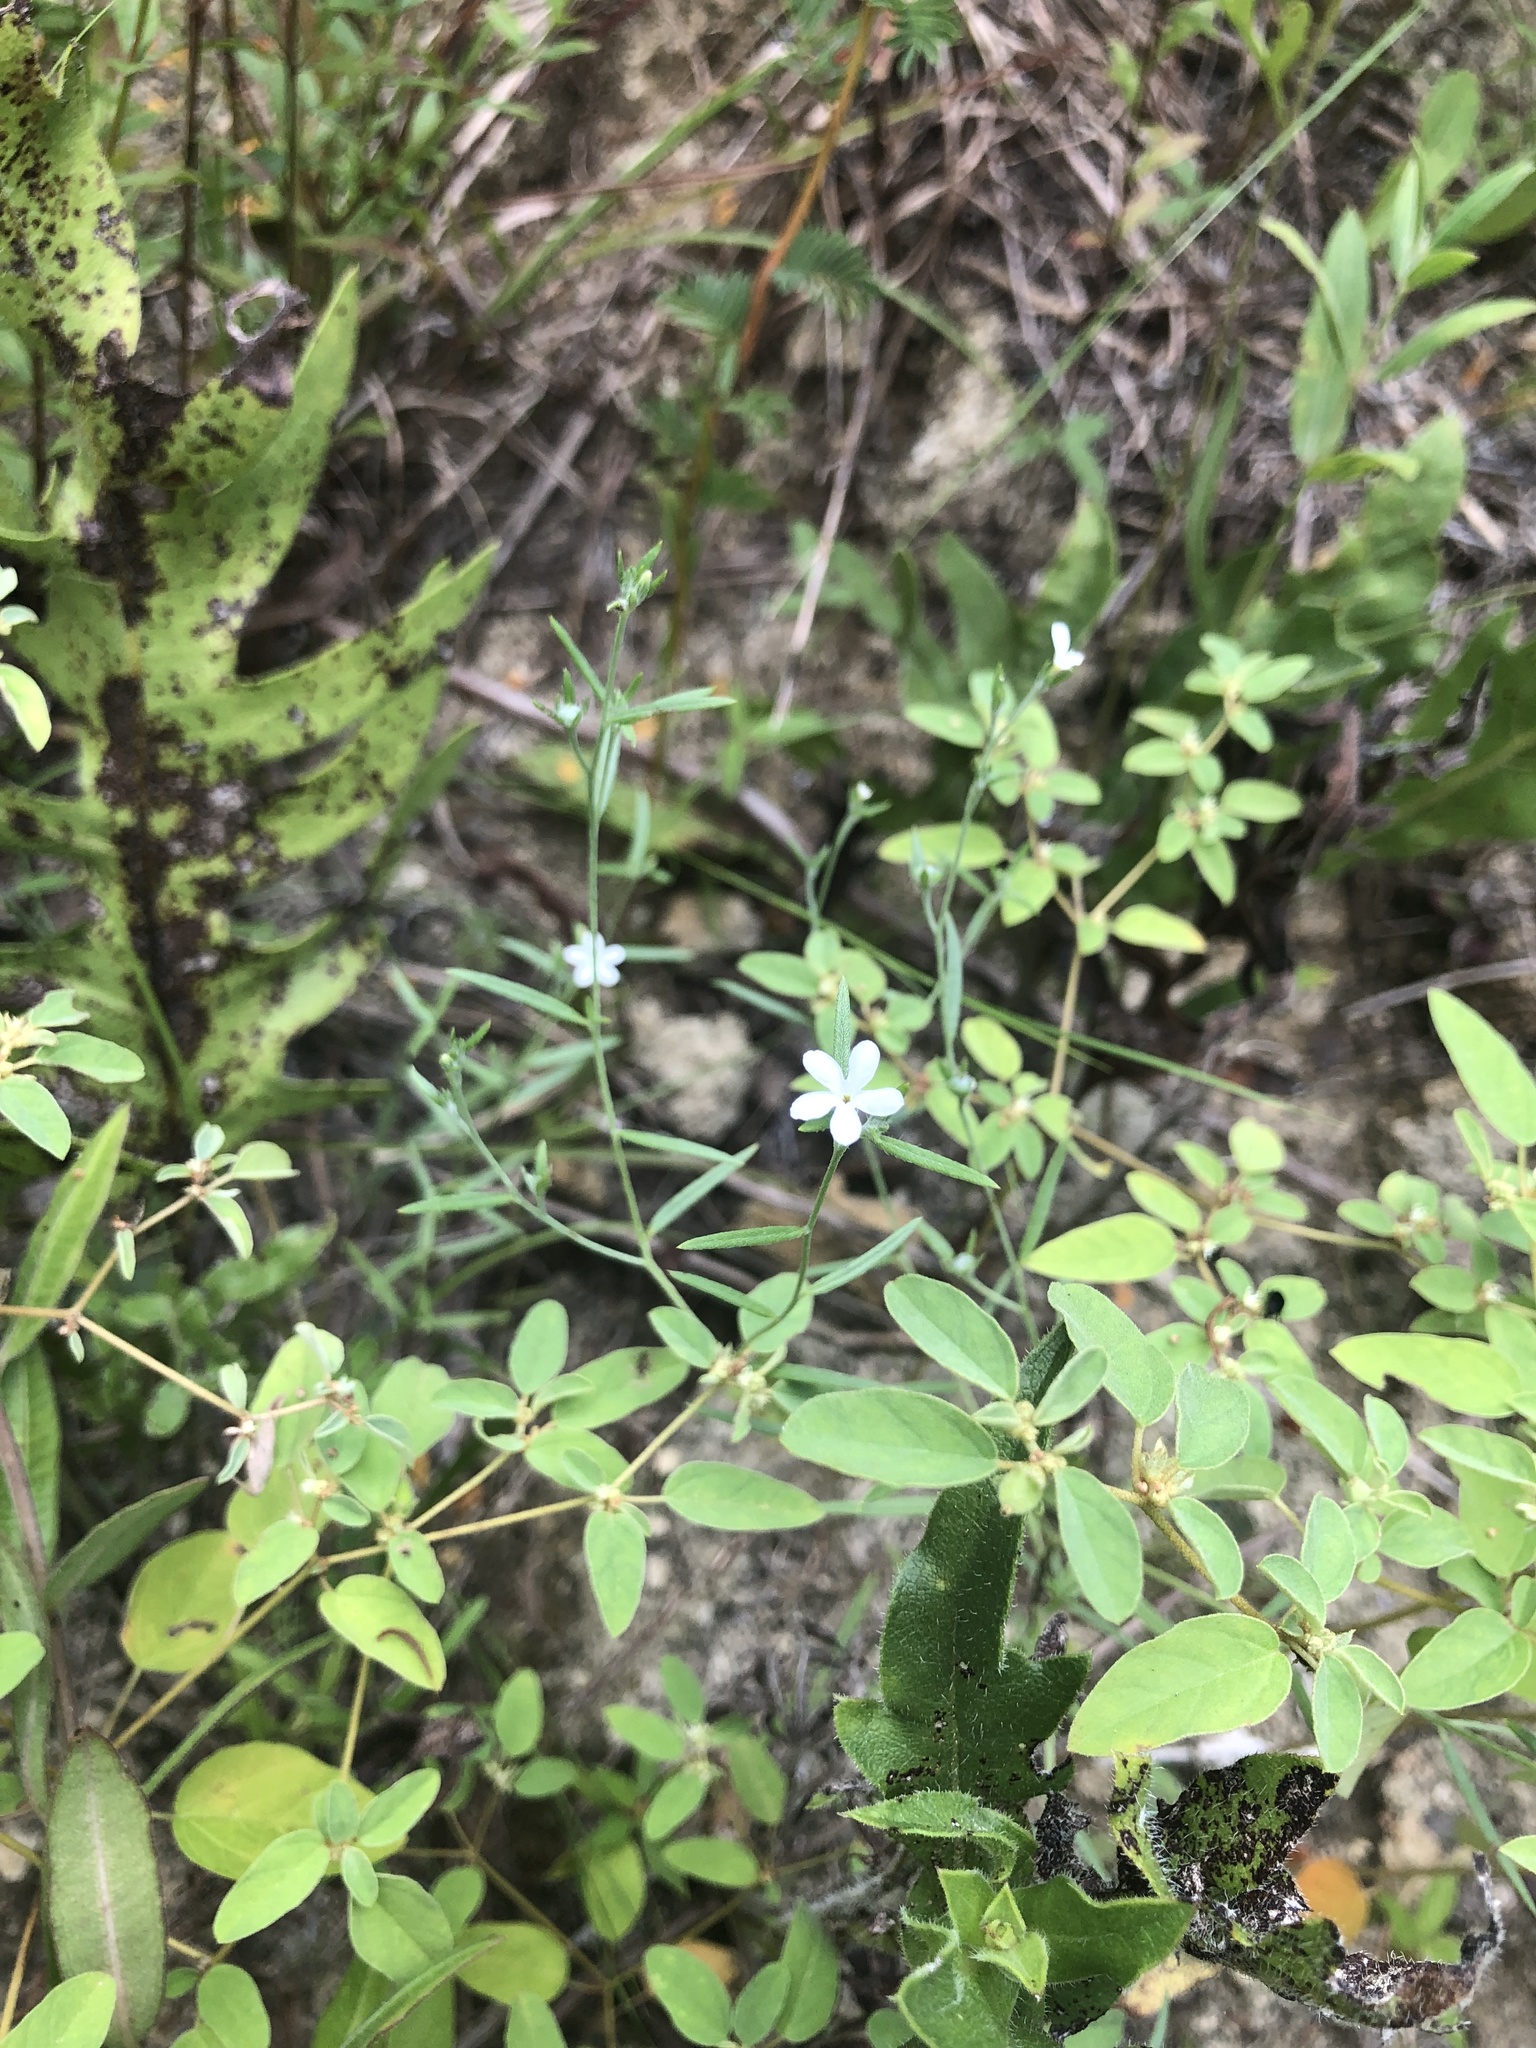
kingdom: Plantae
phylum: Tracheophyta
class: Magnoliopsida
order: Boraginales
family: Heliotropiaceae
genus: Euploca
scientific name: Euploca tenella
